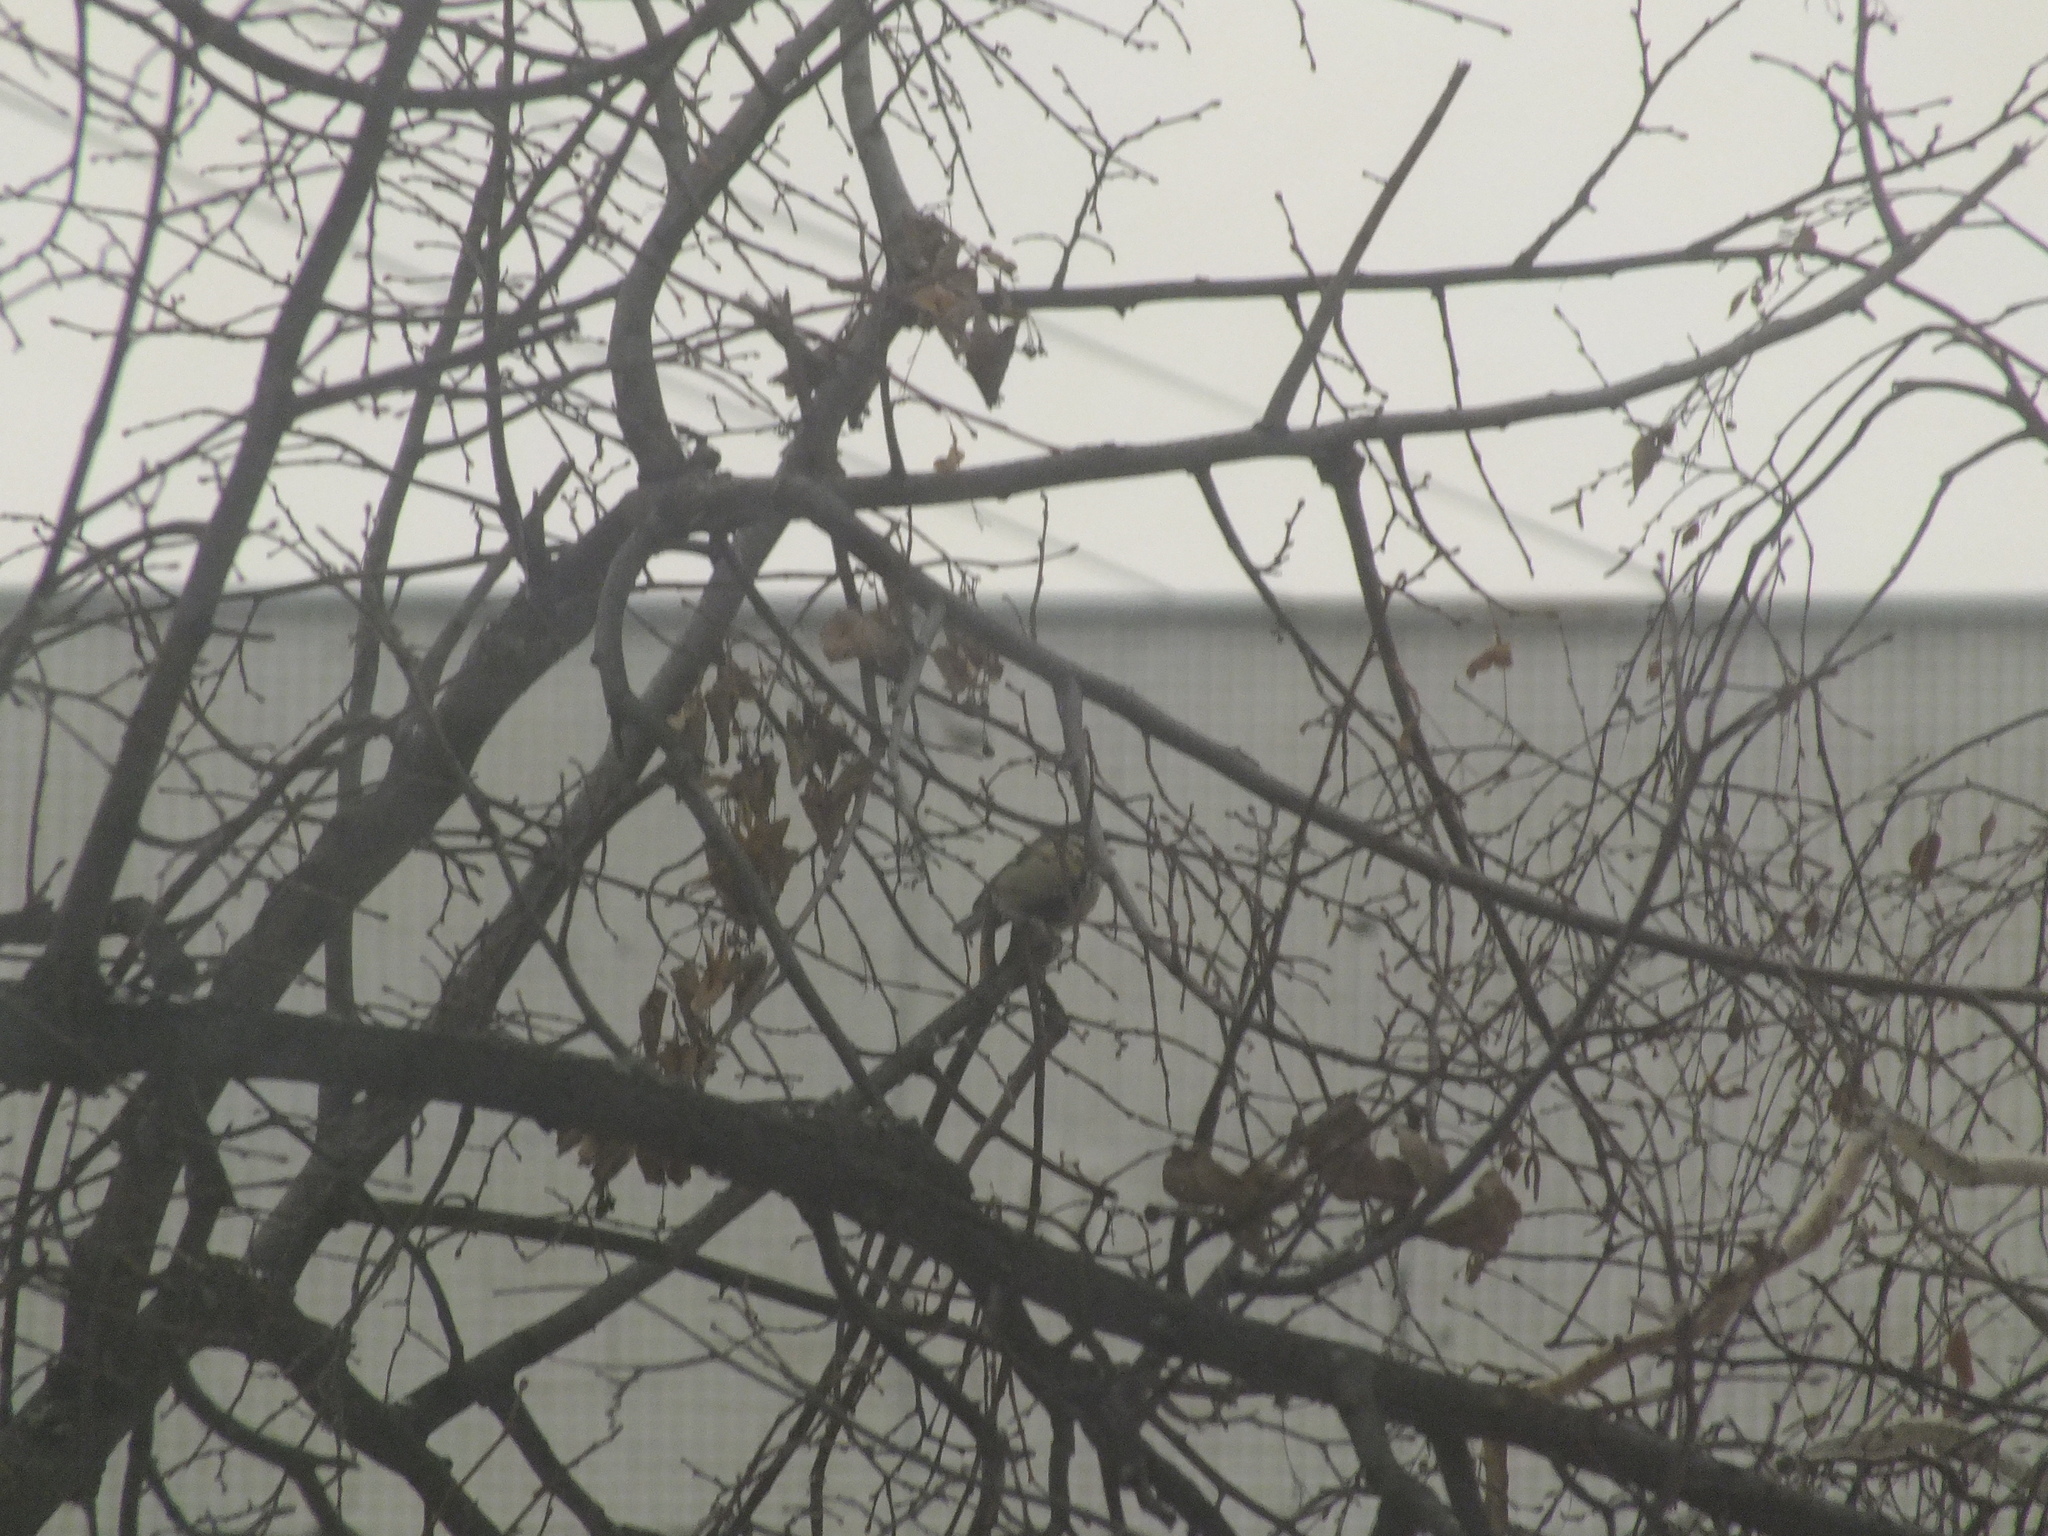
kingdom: Animalia
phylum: Chordata
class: Aves
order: Passeriformes
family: Paridae
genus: Parus
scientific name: Parus major
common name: Great tit
